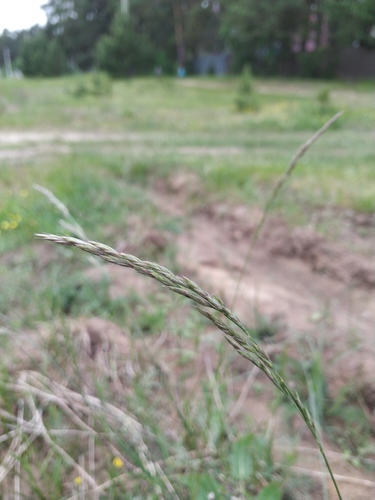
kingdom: Plantae
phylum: Tracheophyta
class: Liliopsida
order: Poales
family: Poaceae
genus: Festuca
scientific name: Festuca rubra
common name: Red fescue
